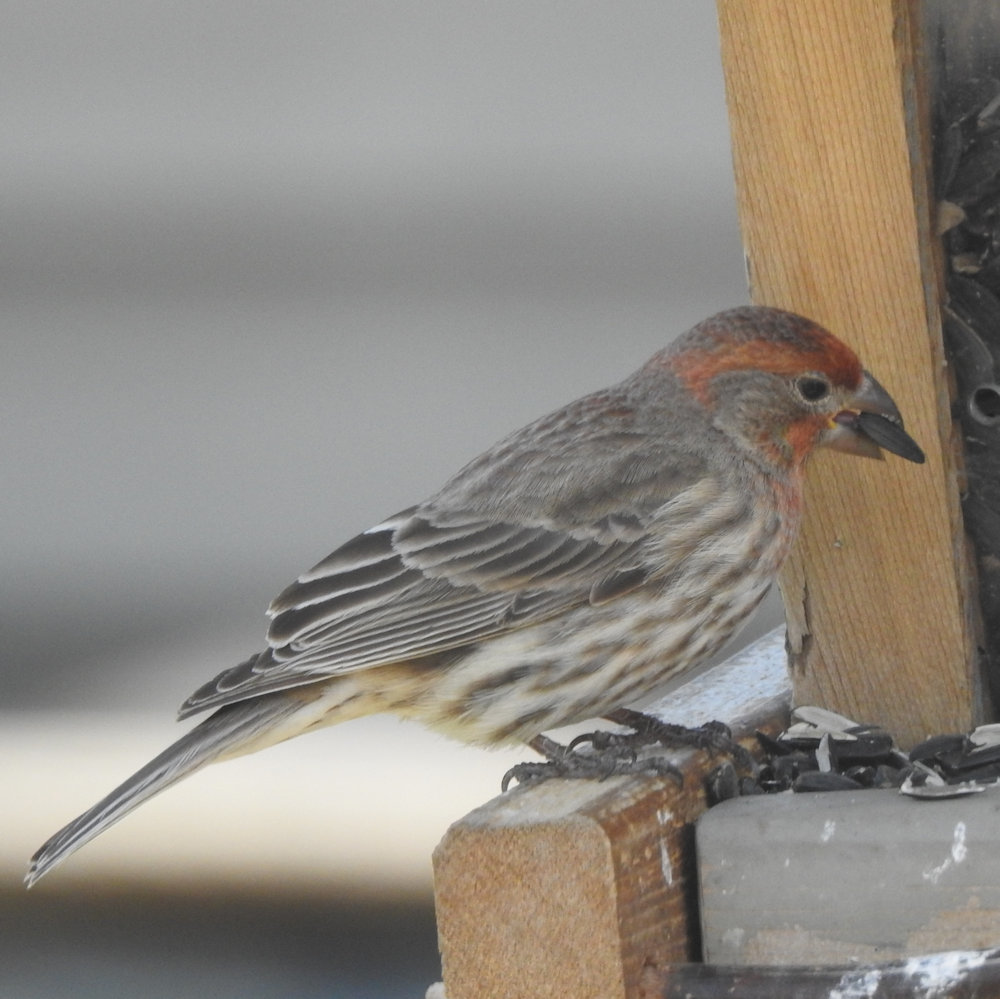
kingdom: Animalia
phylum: Chordata
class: Aves
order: Passeriformes
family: Fringillidae
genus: Haemorhous
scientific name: Haemorhous mexicanus
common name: House finch
